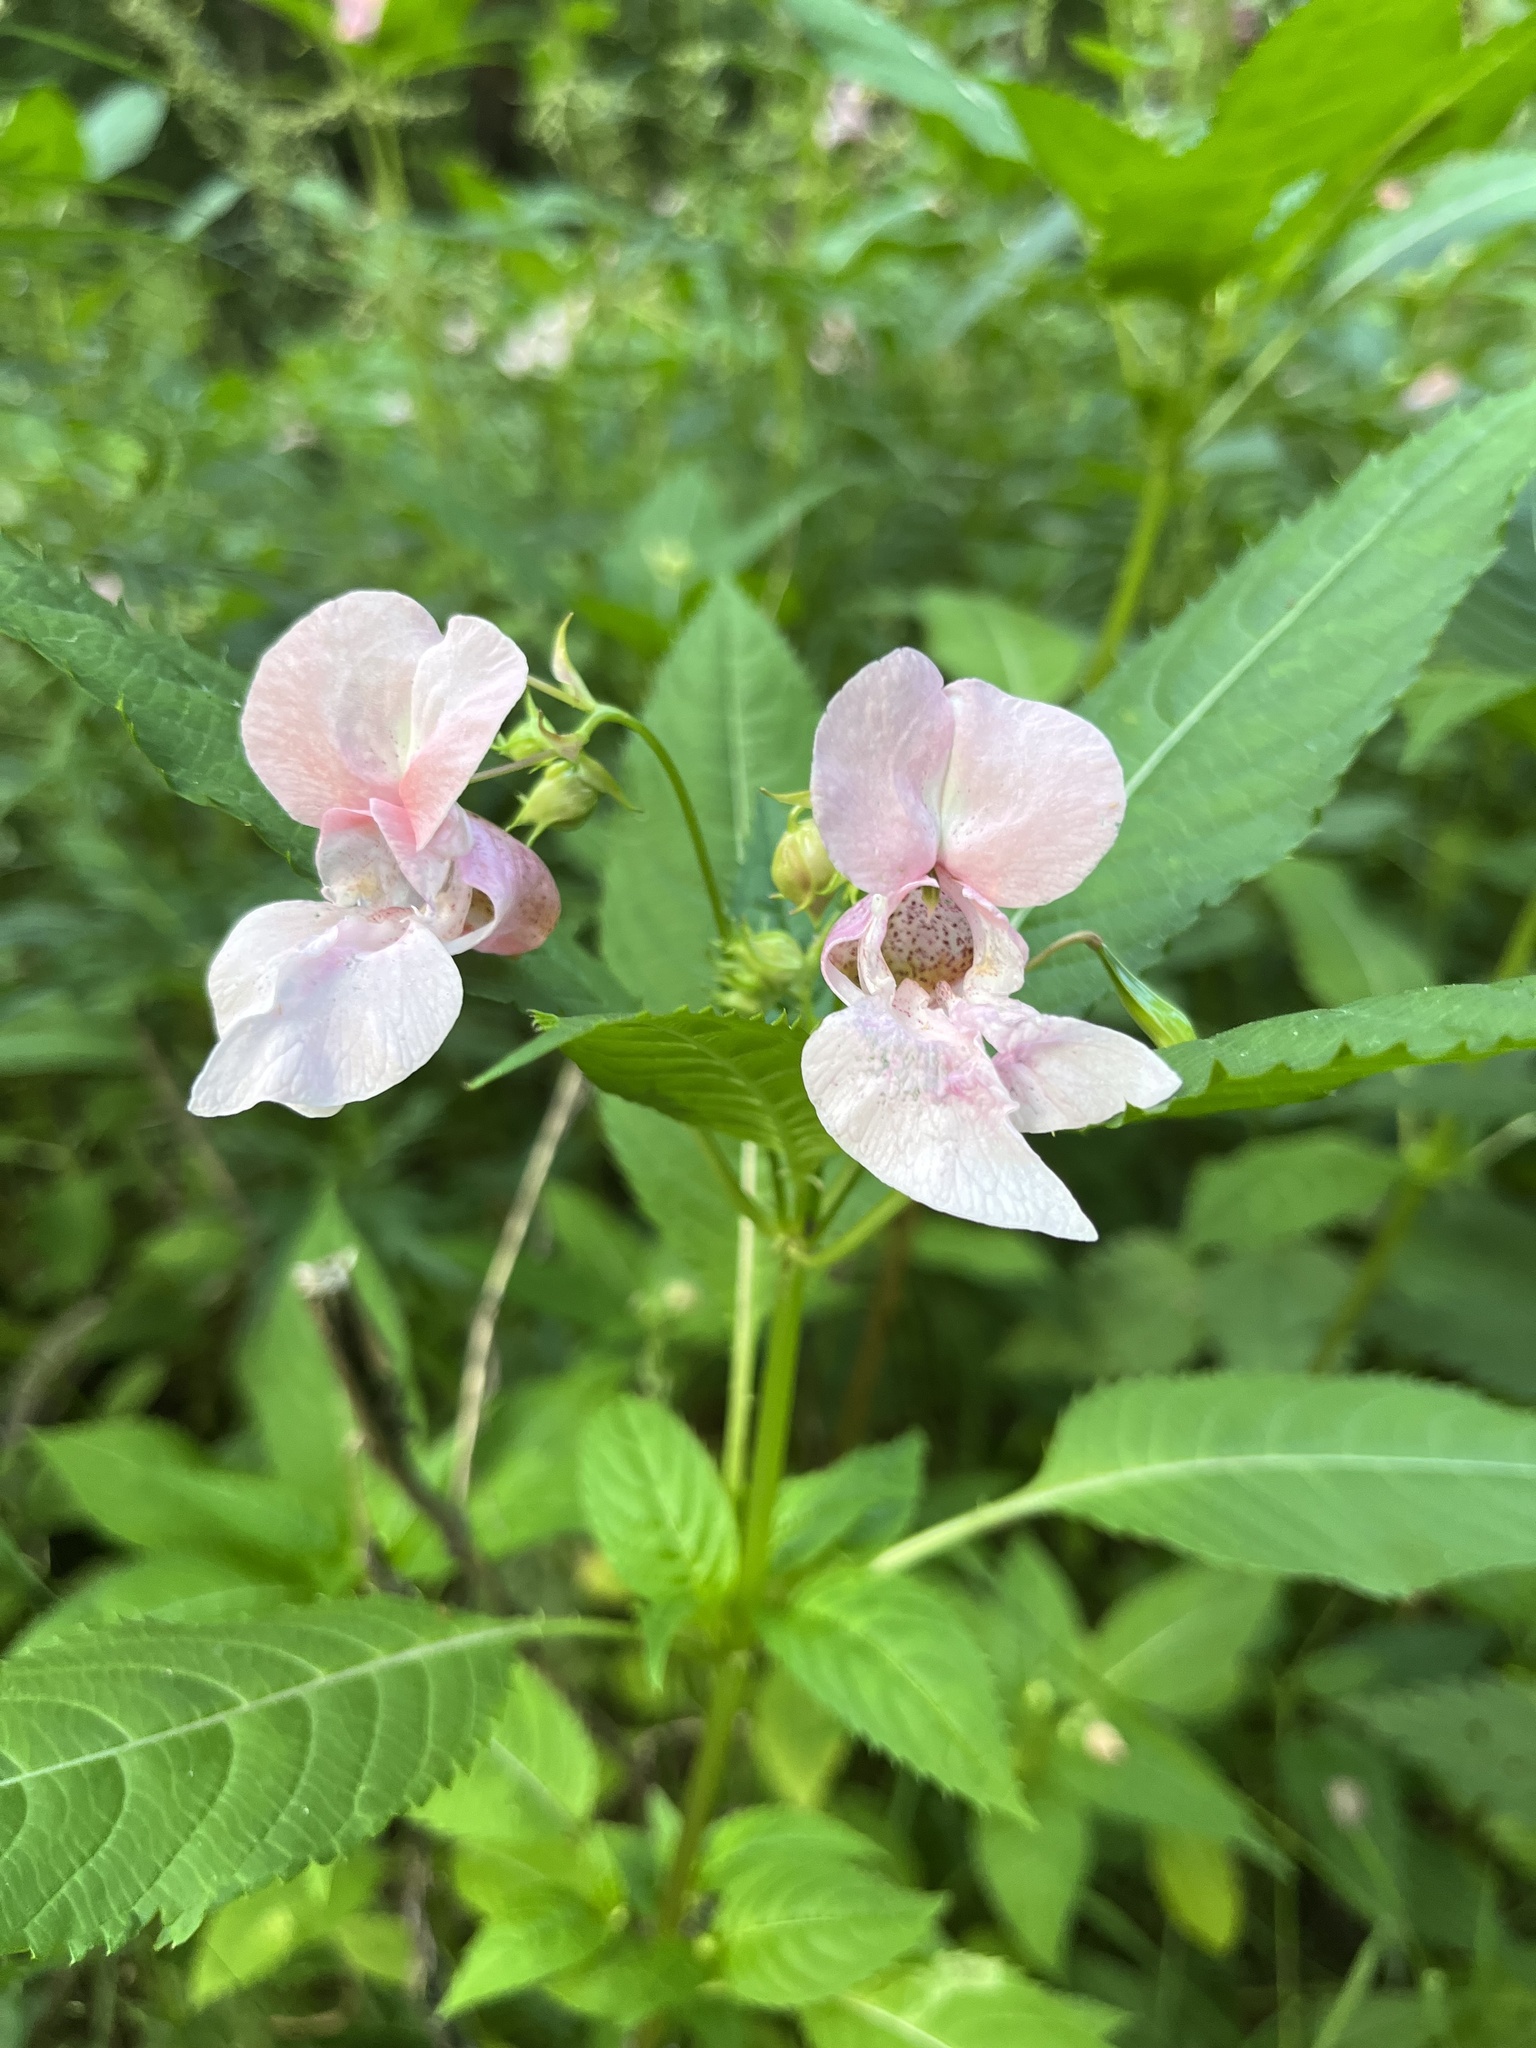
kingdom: Plantae
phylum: Tracheophyta
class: Magnoliopsida
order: Ericales
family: Balsaminaceae
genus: Impatiens
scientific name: Impatiens glandulifera
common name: Himalayan balsam
